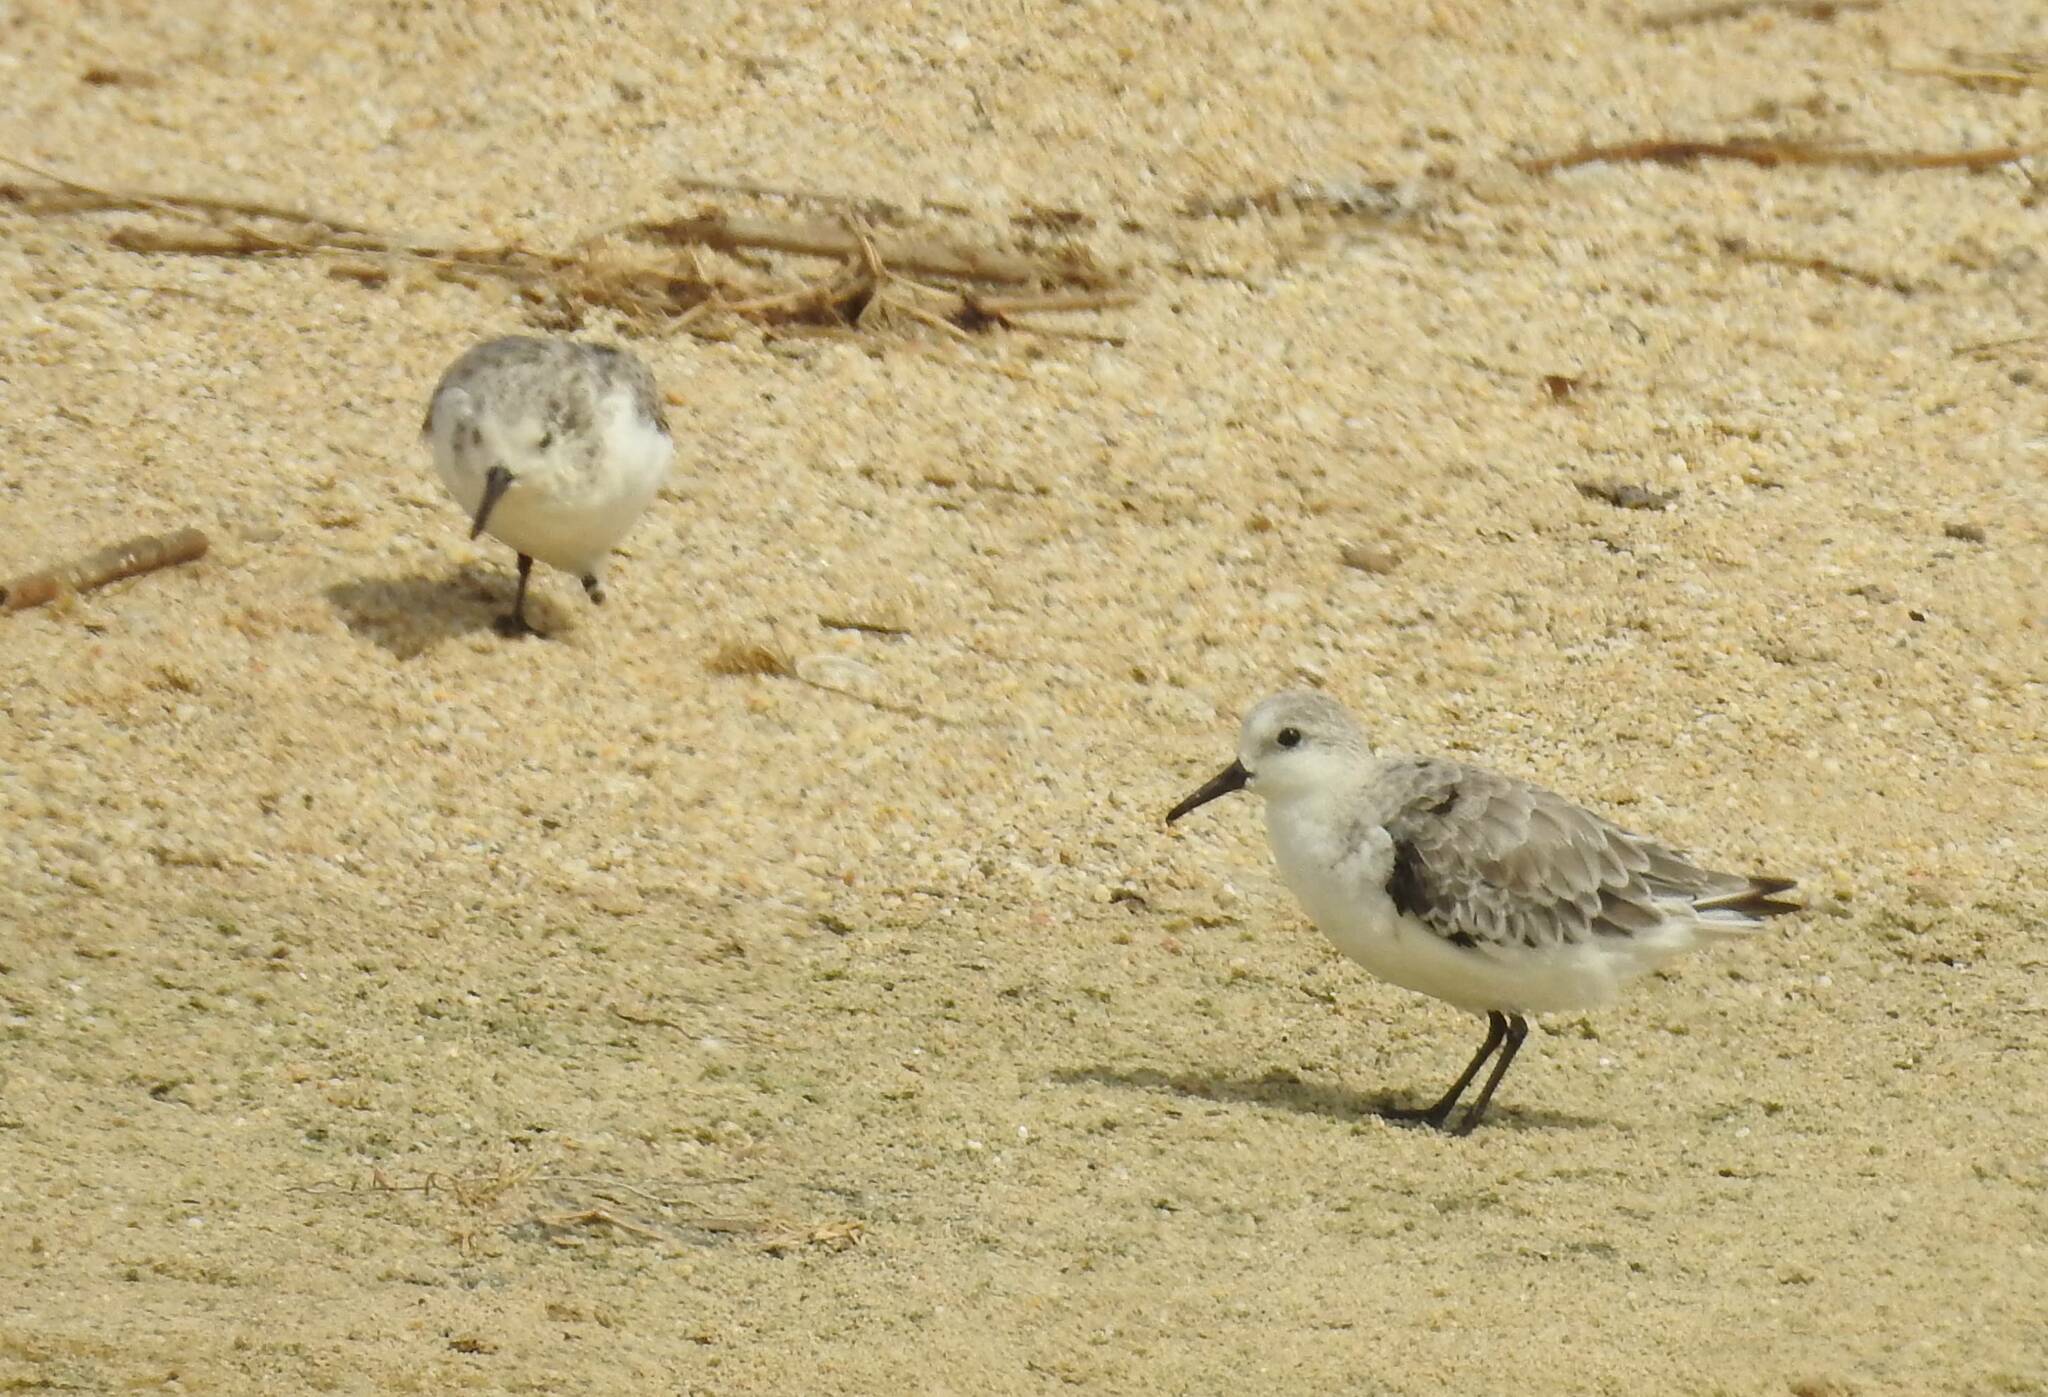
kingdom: Animalia
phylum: Chordata
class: Aves
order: Charadriiformes
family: Scolopacidae
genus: Calidris
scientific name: Calidris alba
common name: Sanderling
